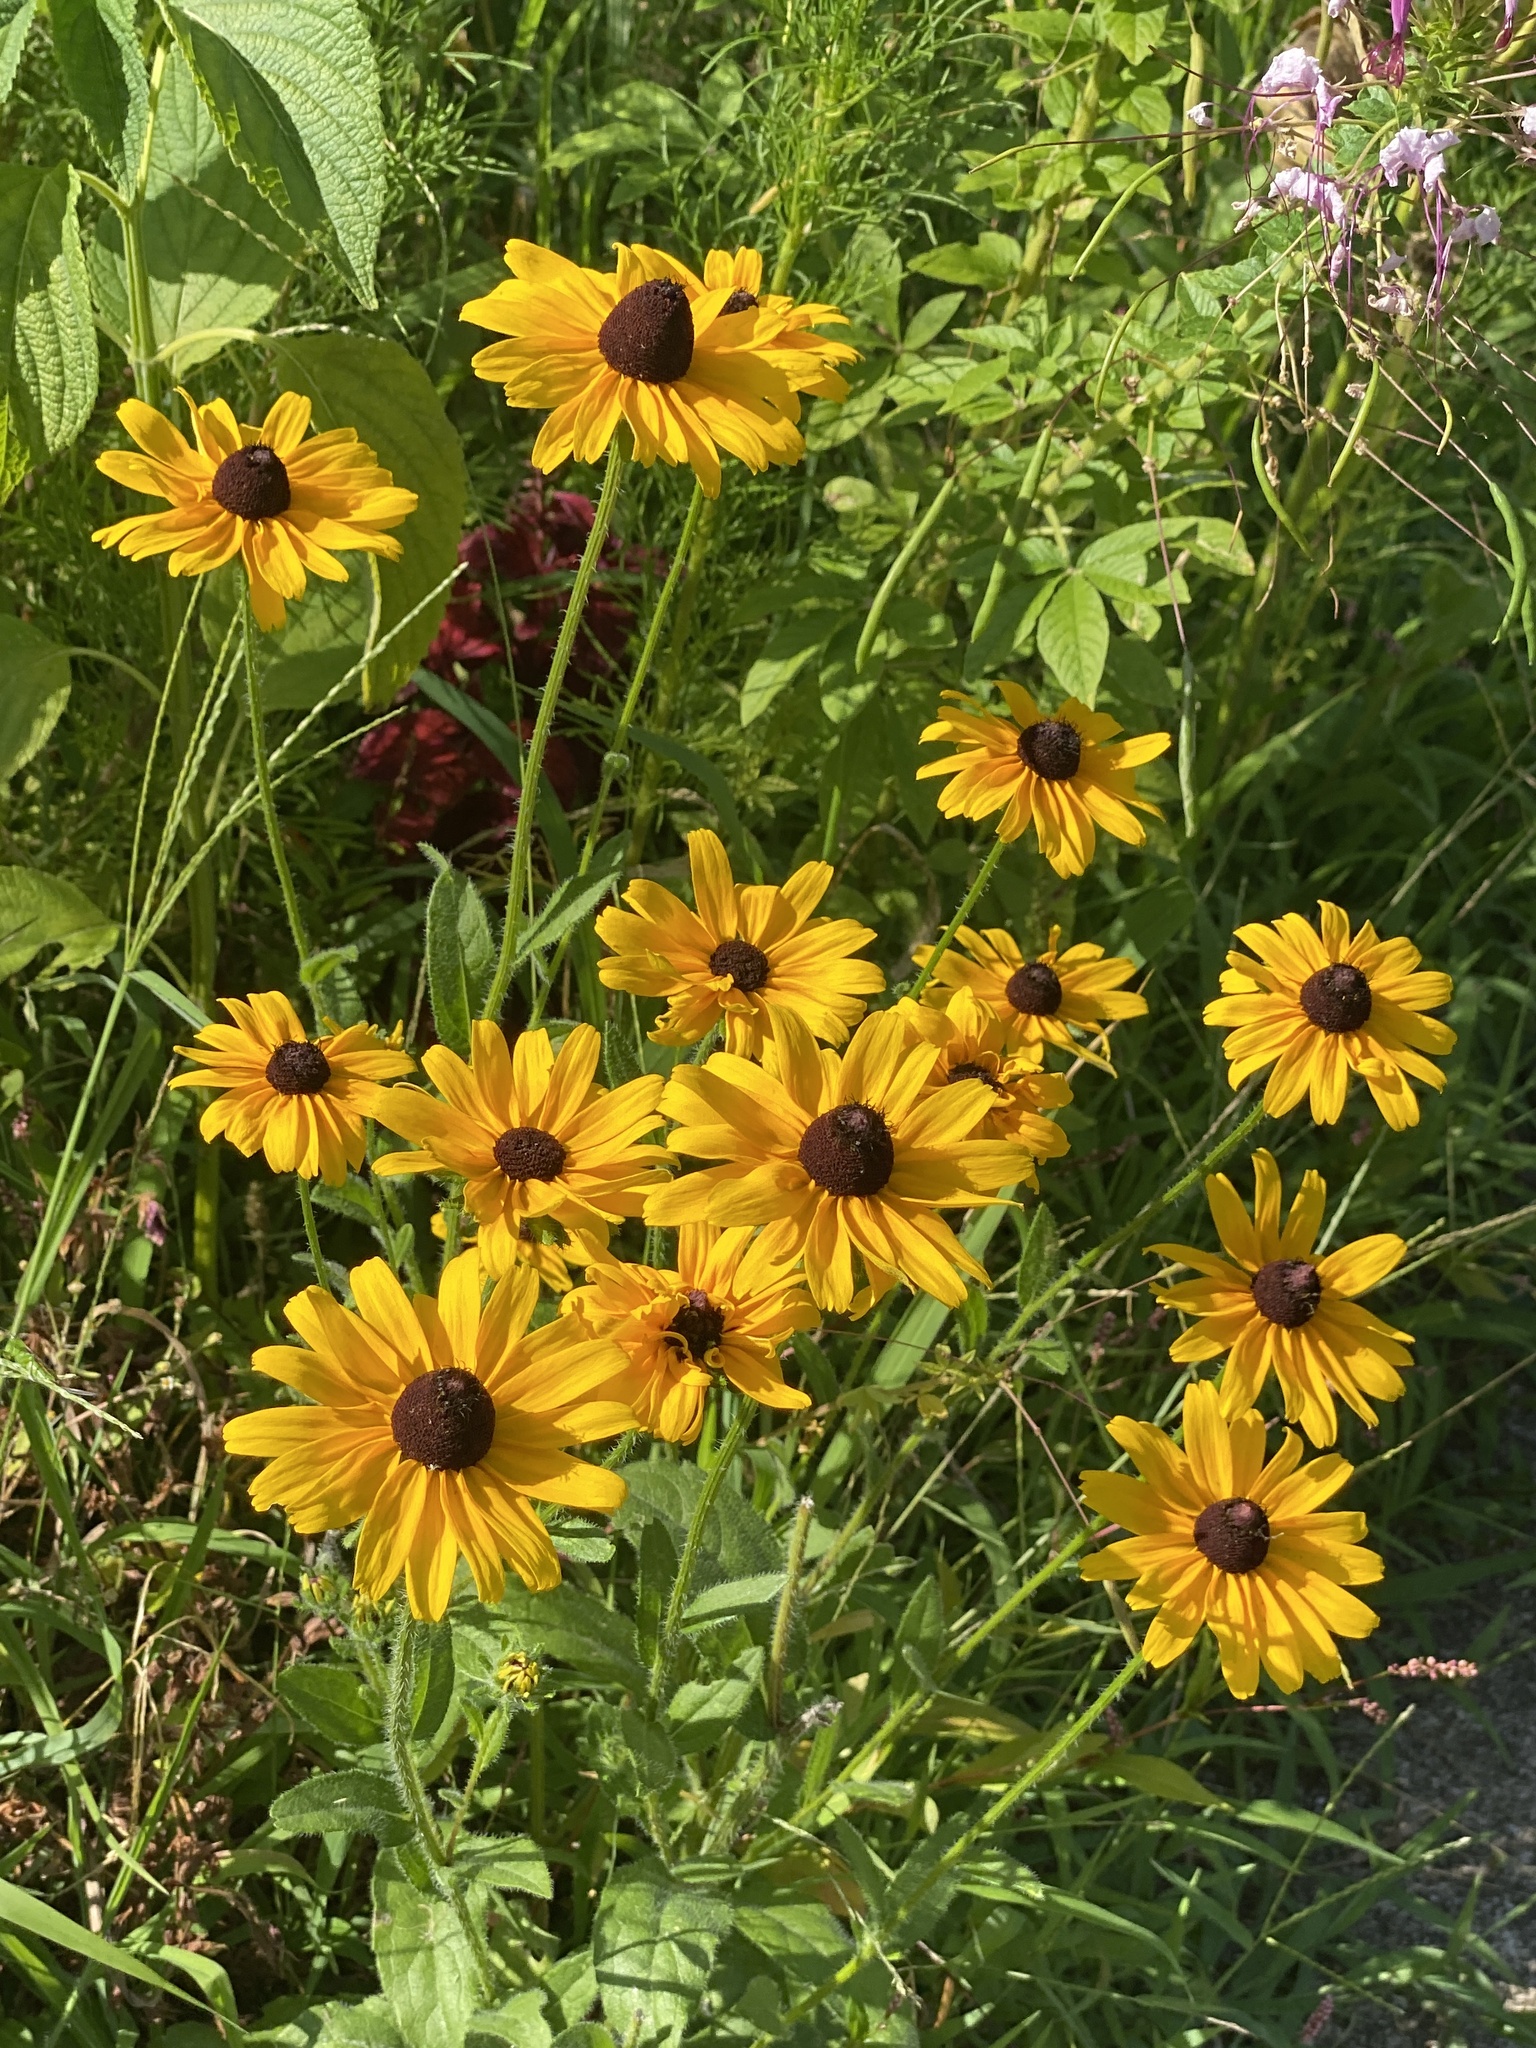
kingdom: Plantae
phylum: Tracheophyta
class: Magnoliopsida
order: Asterales
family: Asteraceae
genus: Rudbeckia
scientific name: Rudbeckia hirta
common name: Black-eyed-susan
